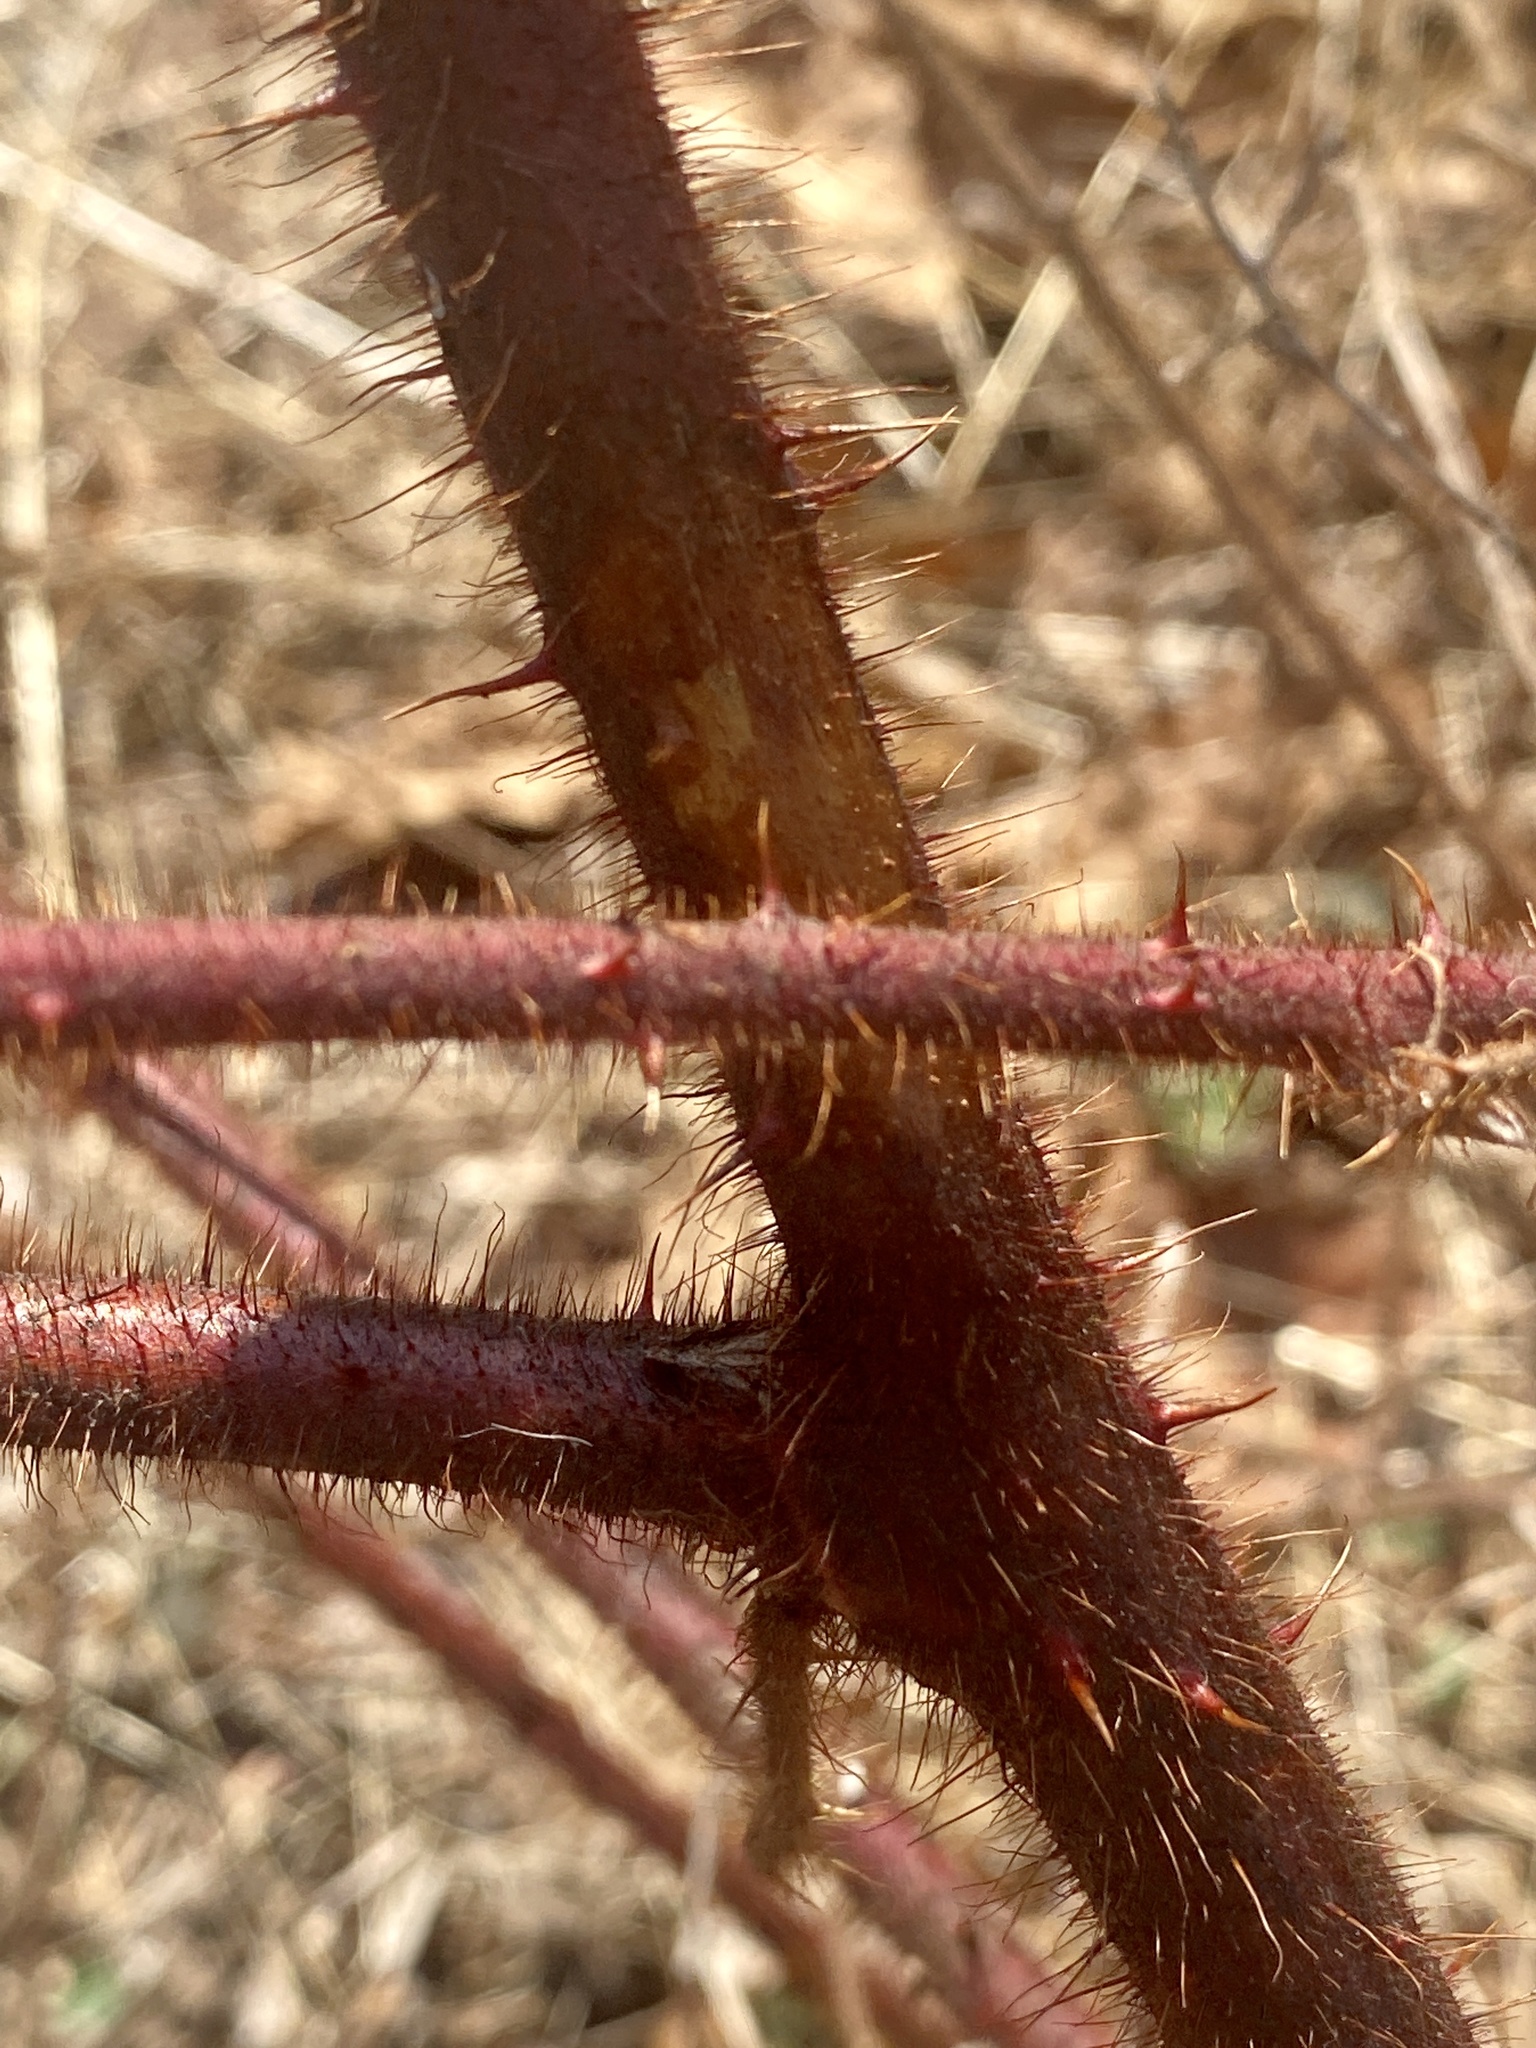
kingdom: Plantae
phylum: Tracheophyta
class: Magnoliopsida
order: Rosales
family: Rosaceae
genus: Rubus
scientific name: Rubus phoenicolasius
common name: Japanese wineberry
